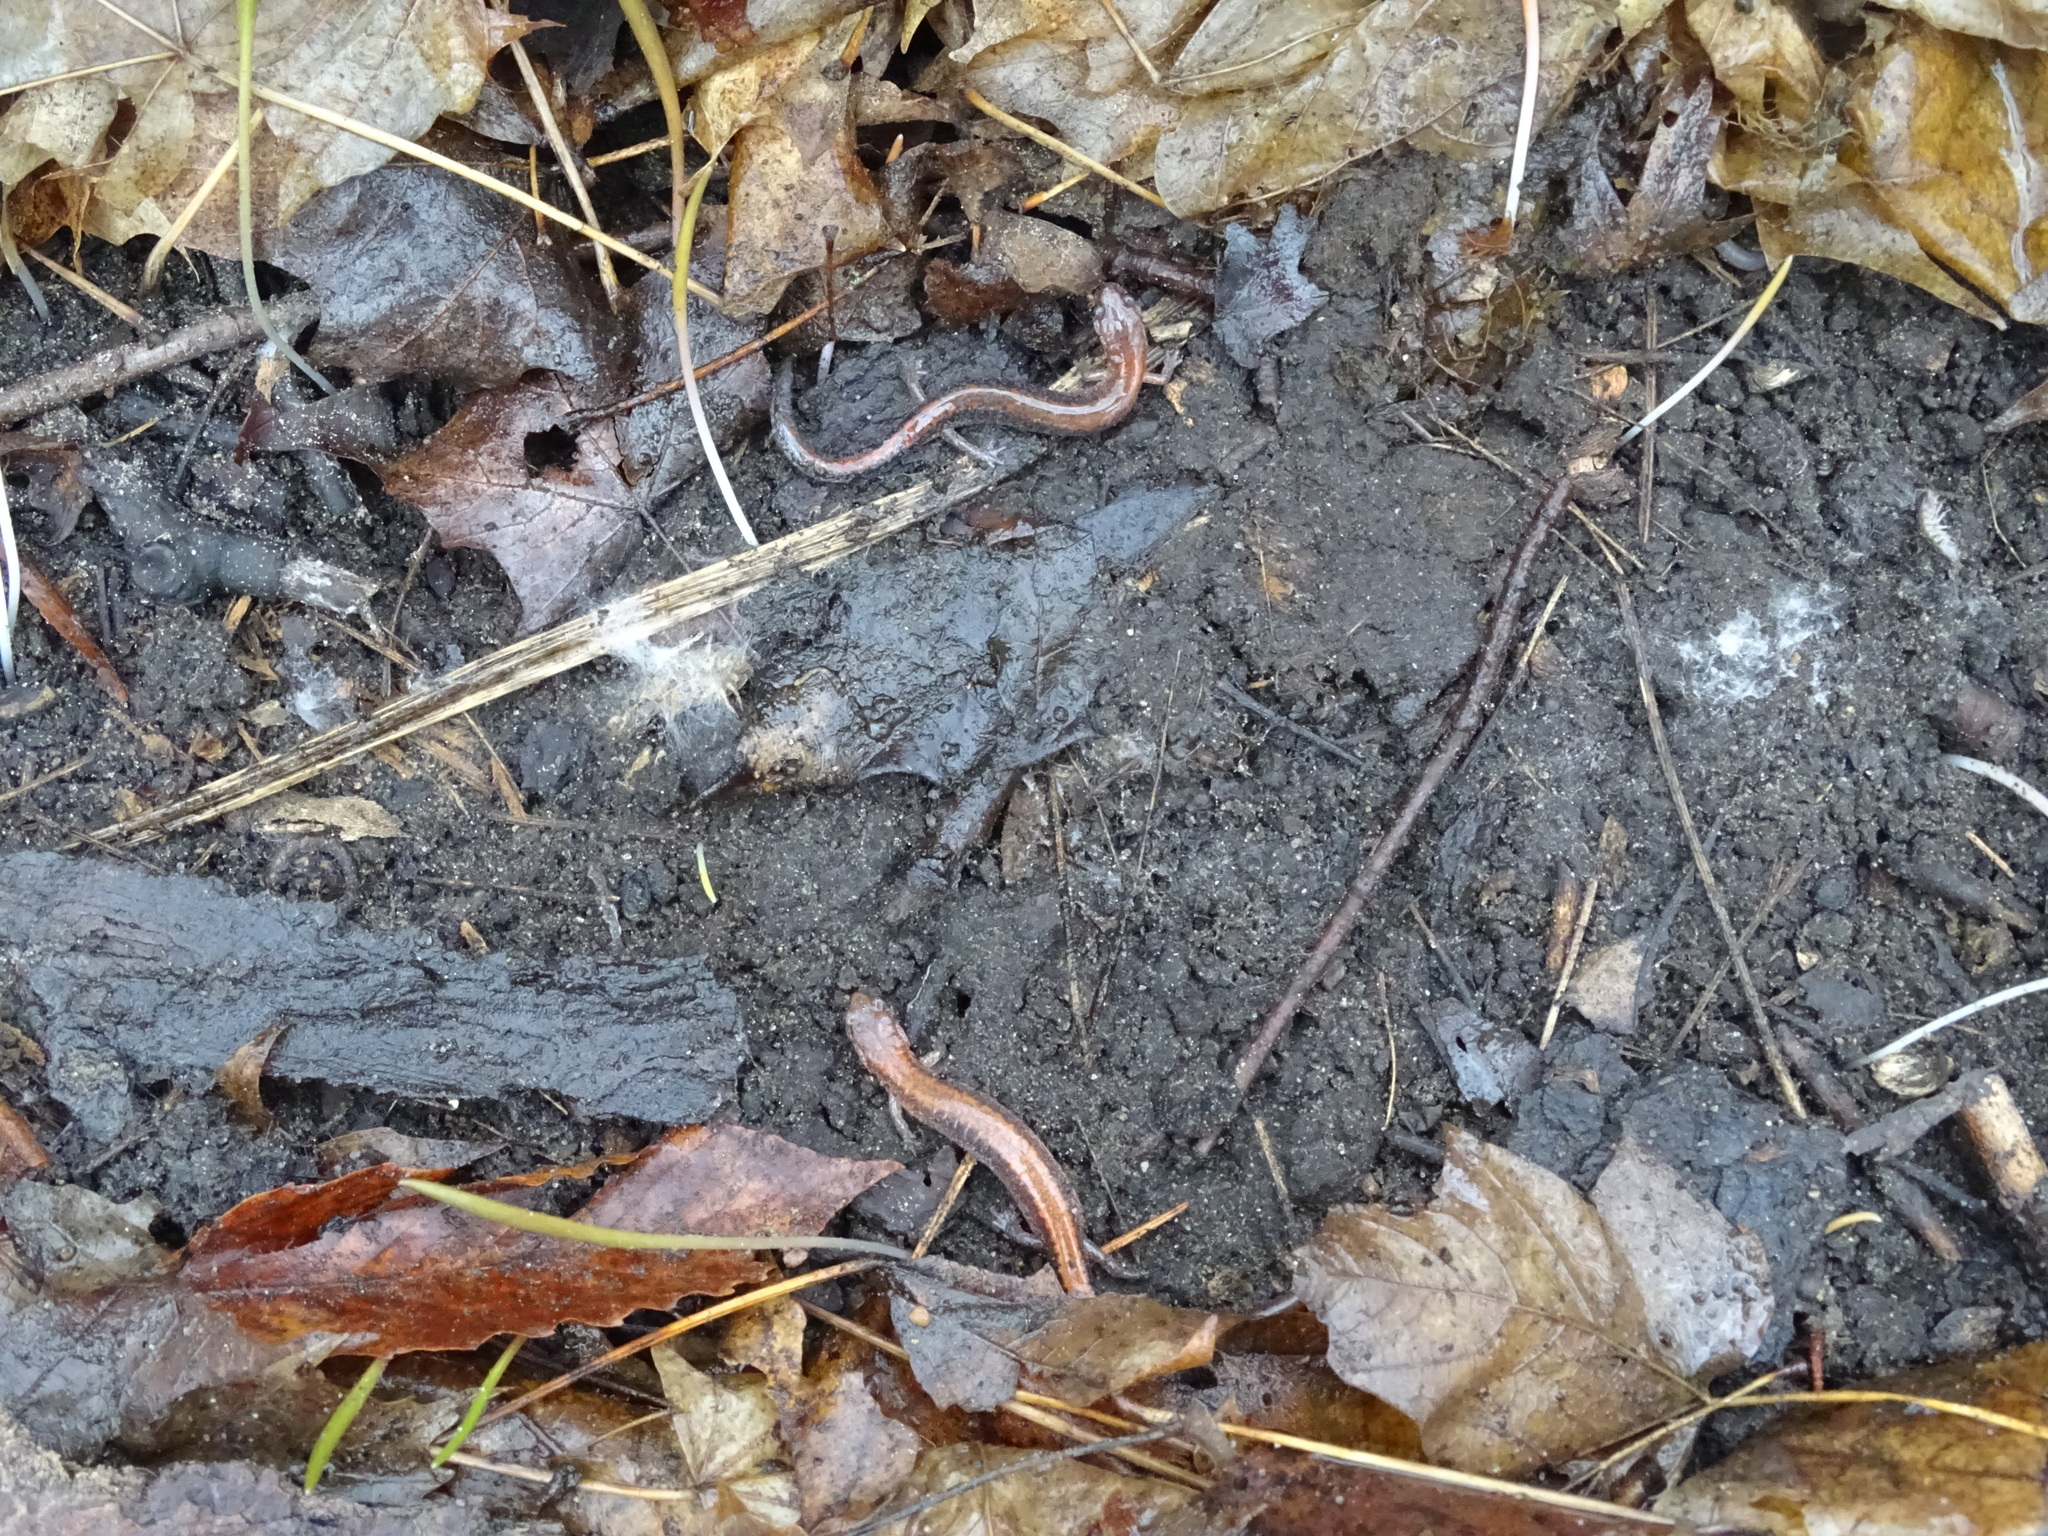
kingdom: Animalia
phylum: Chordata
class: Amphibia
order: Caudata
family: Plethodontidae
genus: Plethodon
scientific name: Plethodon cinereus
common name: Redback salamander
